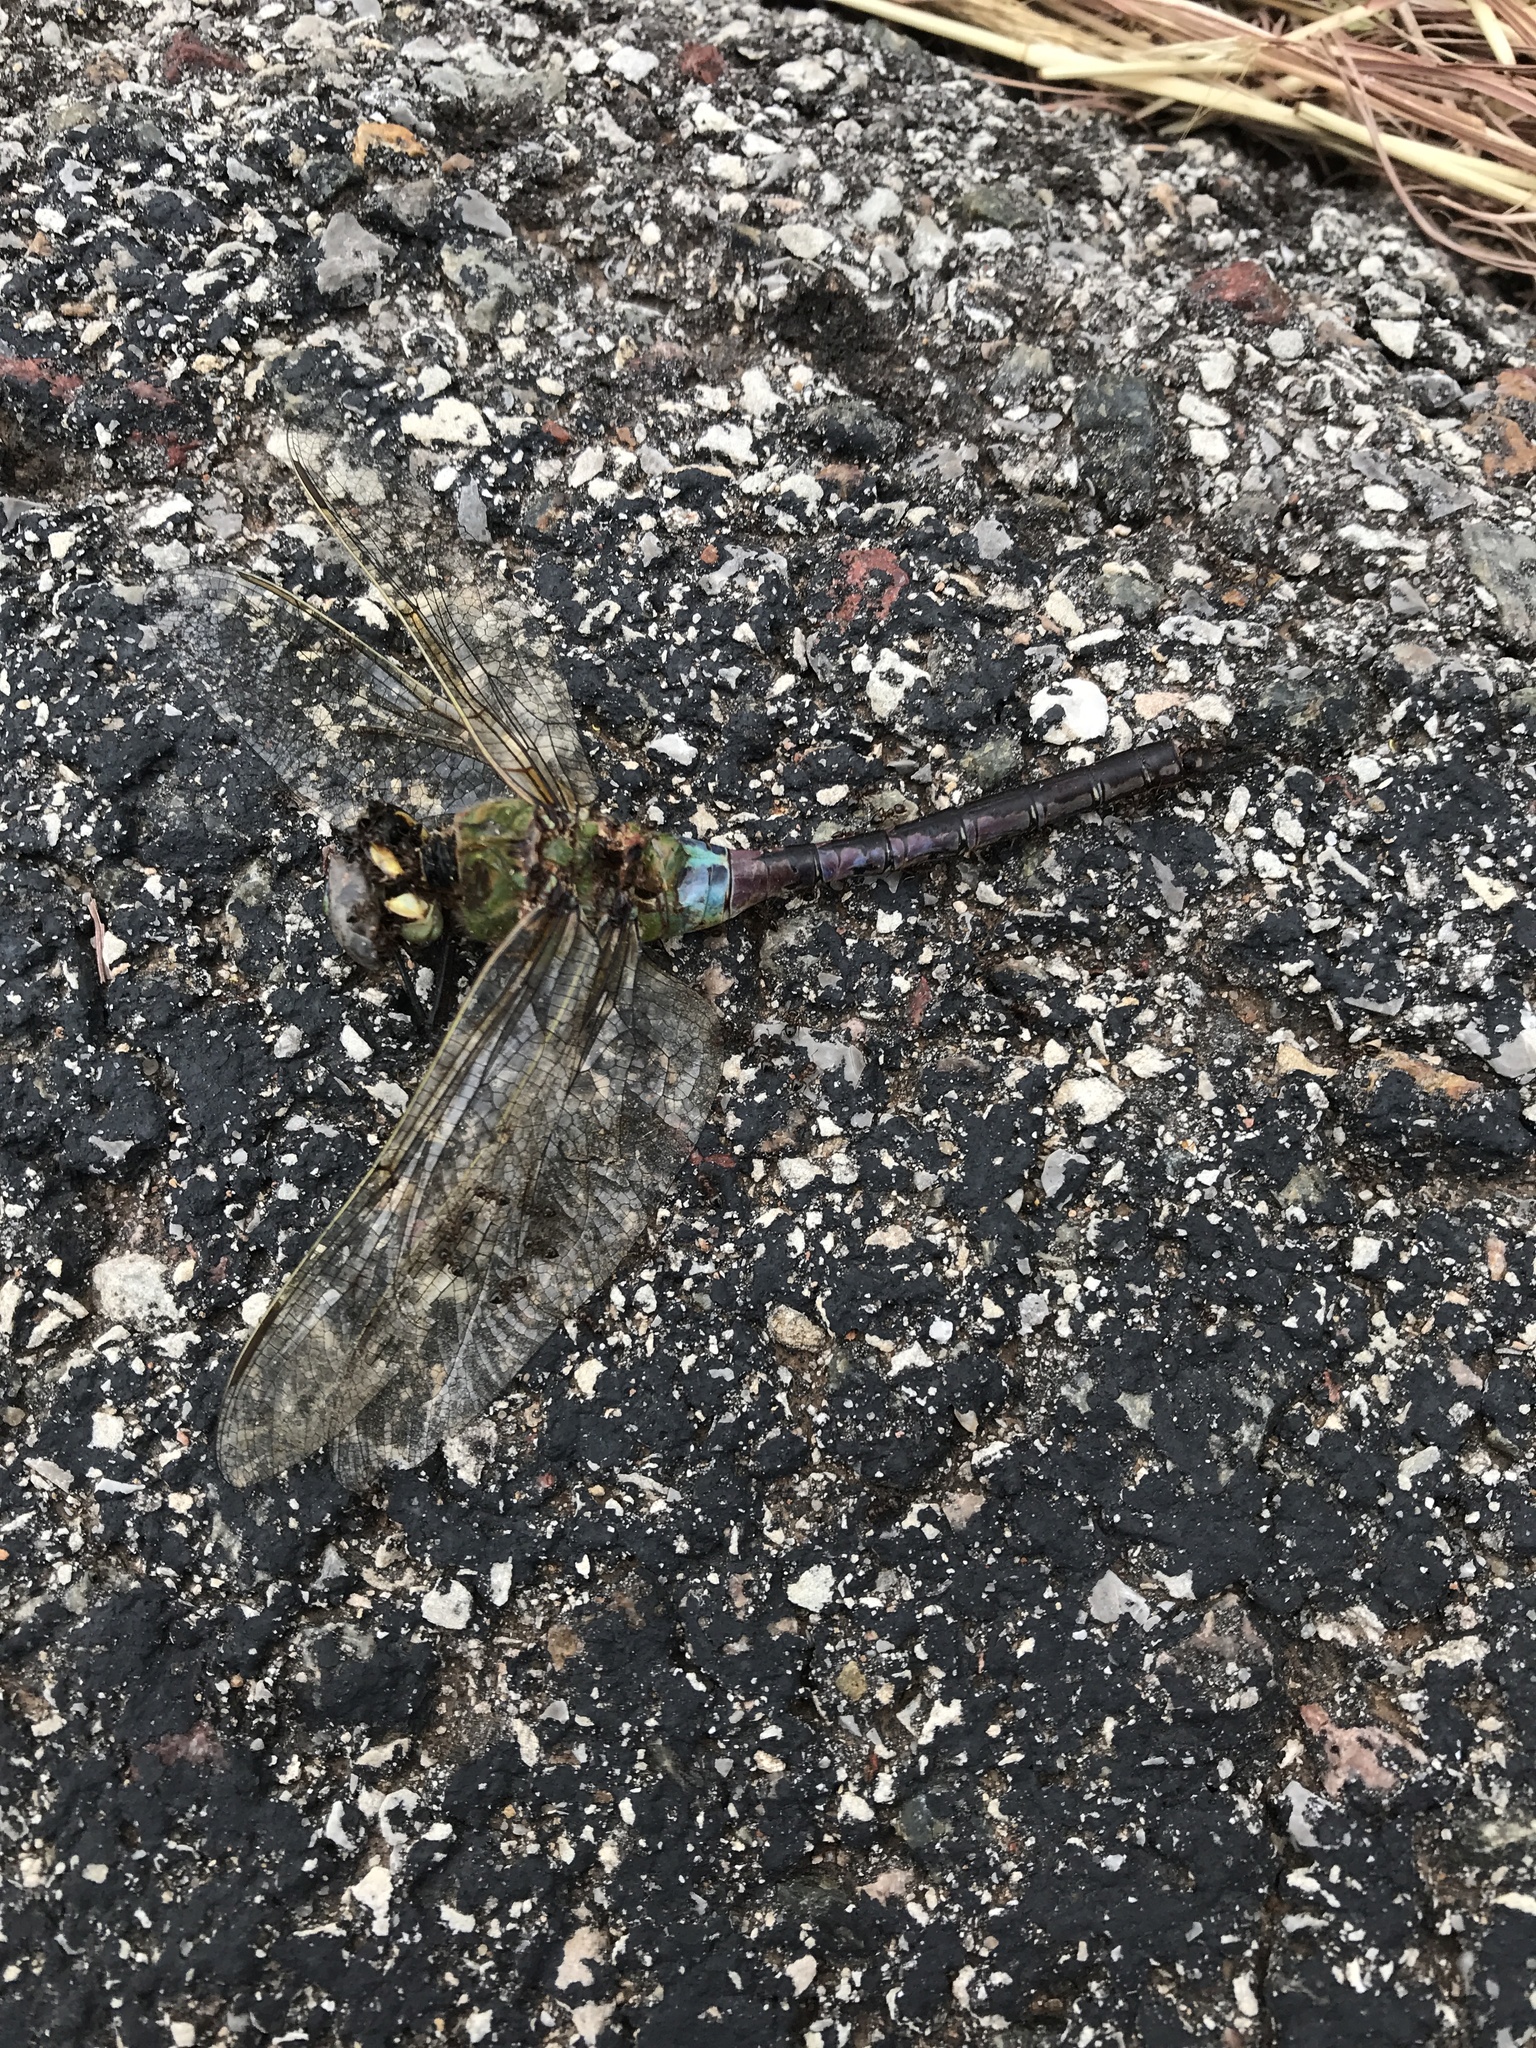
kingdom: Animalia
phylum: Arthropoda
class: Insecta
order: Odonata
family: Aeshnidae
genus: Anax
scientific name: Anax junius
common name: Common green darner
